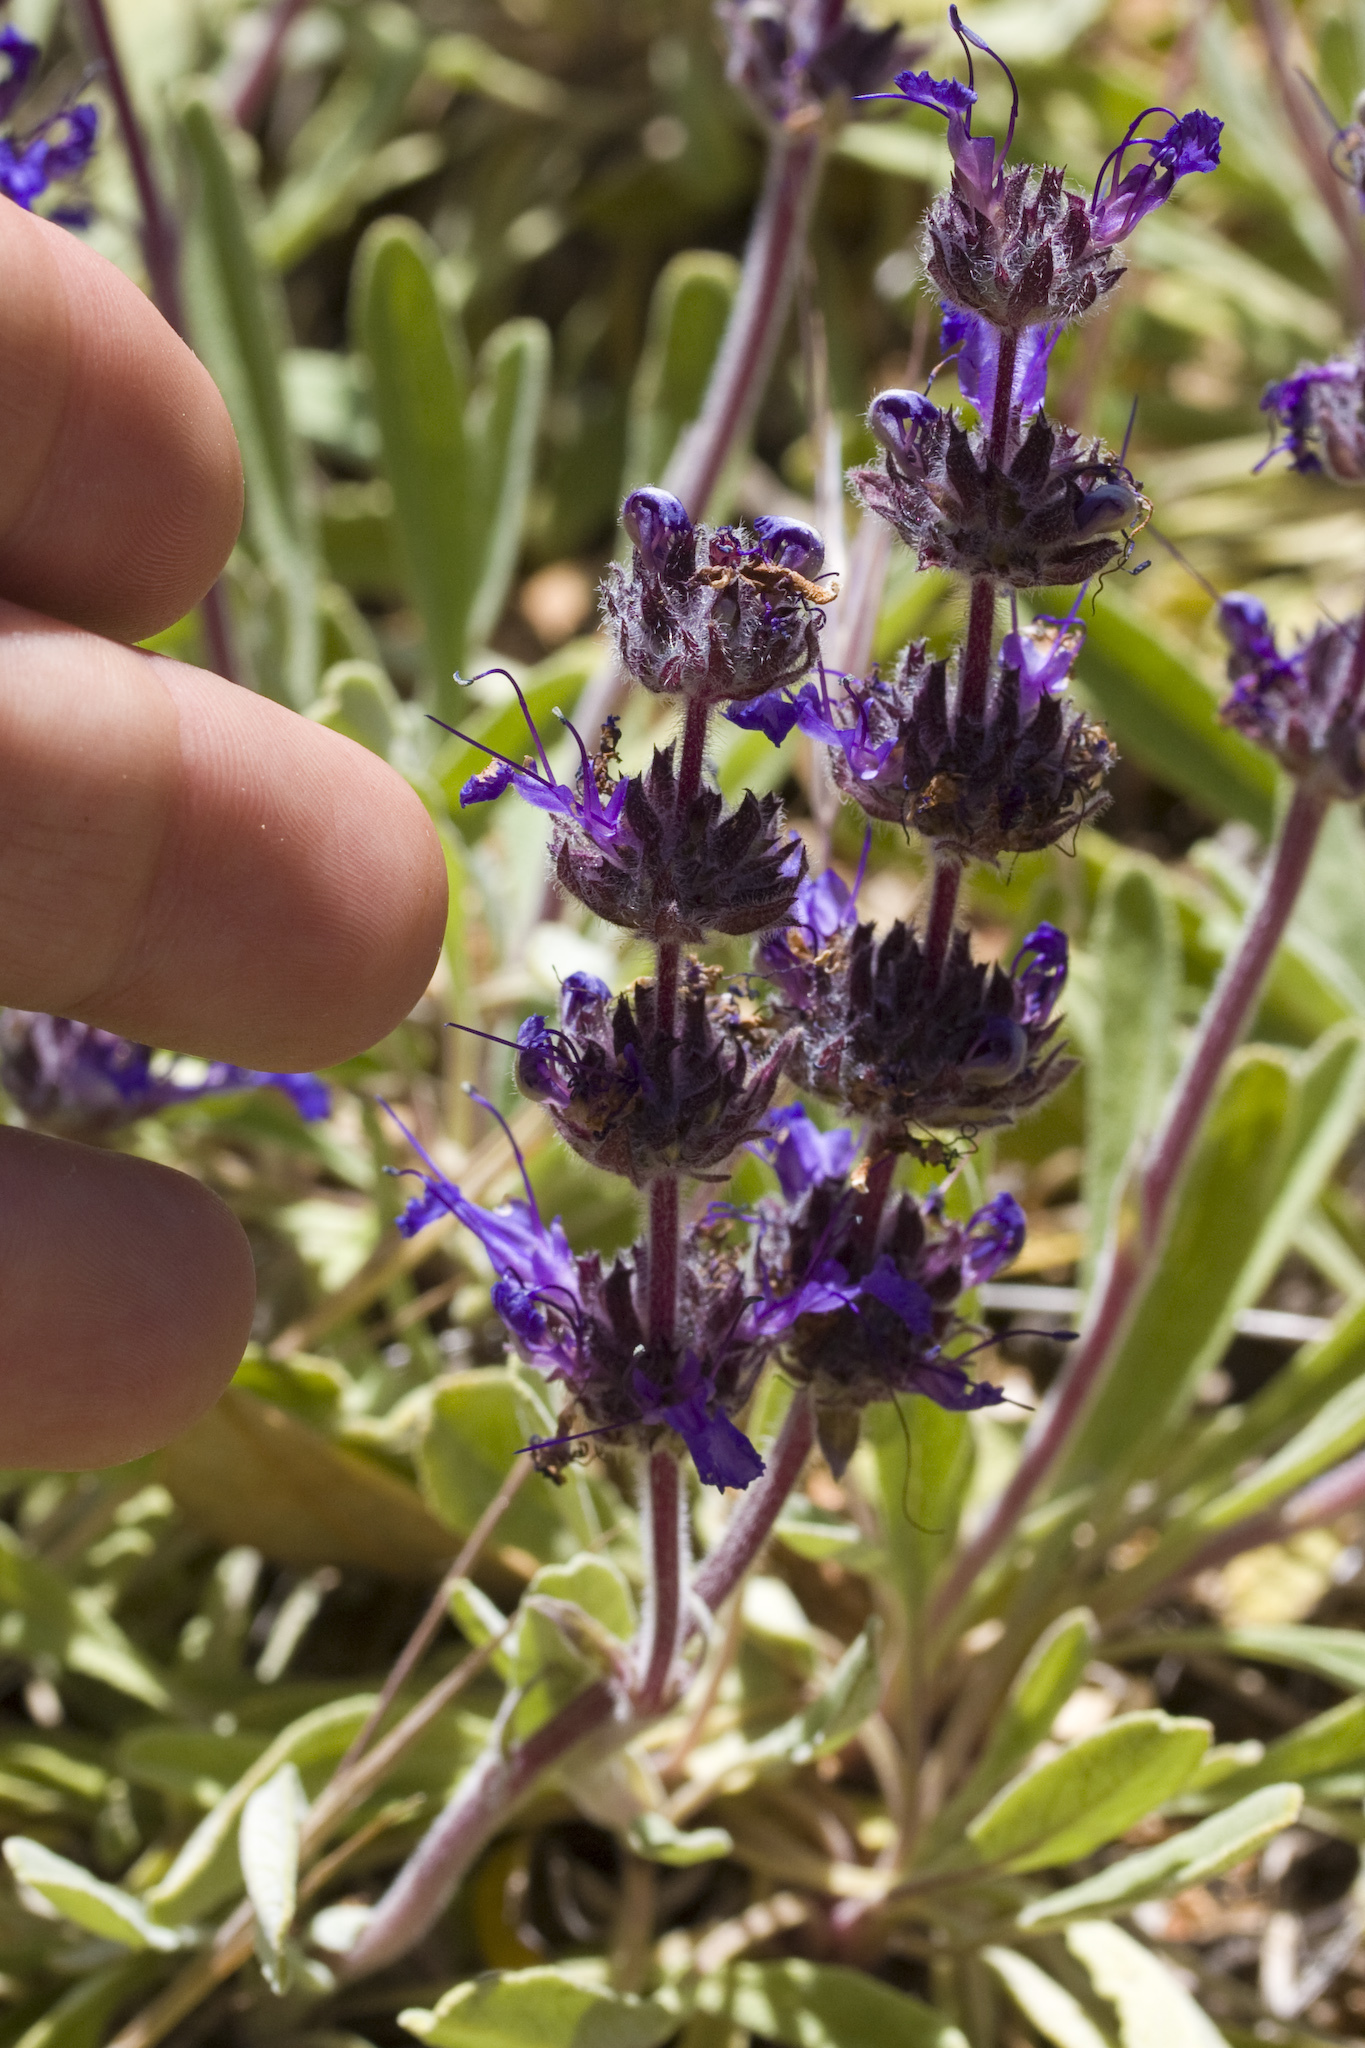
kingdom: Plantae
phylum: Tracheophyta
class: Magnoliopsida
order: Lamiales
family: Lamiaceae
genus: Salvia
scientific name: Salvia sonomensis
